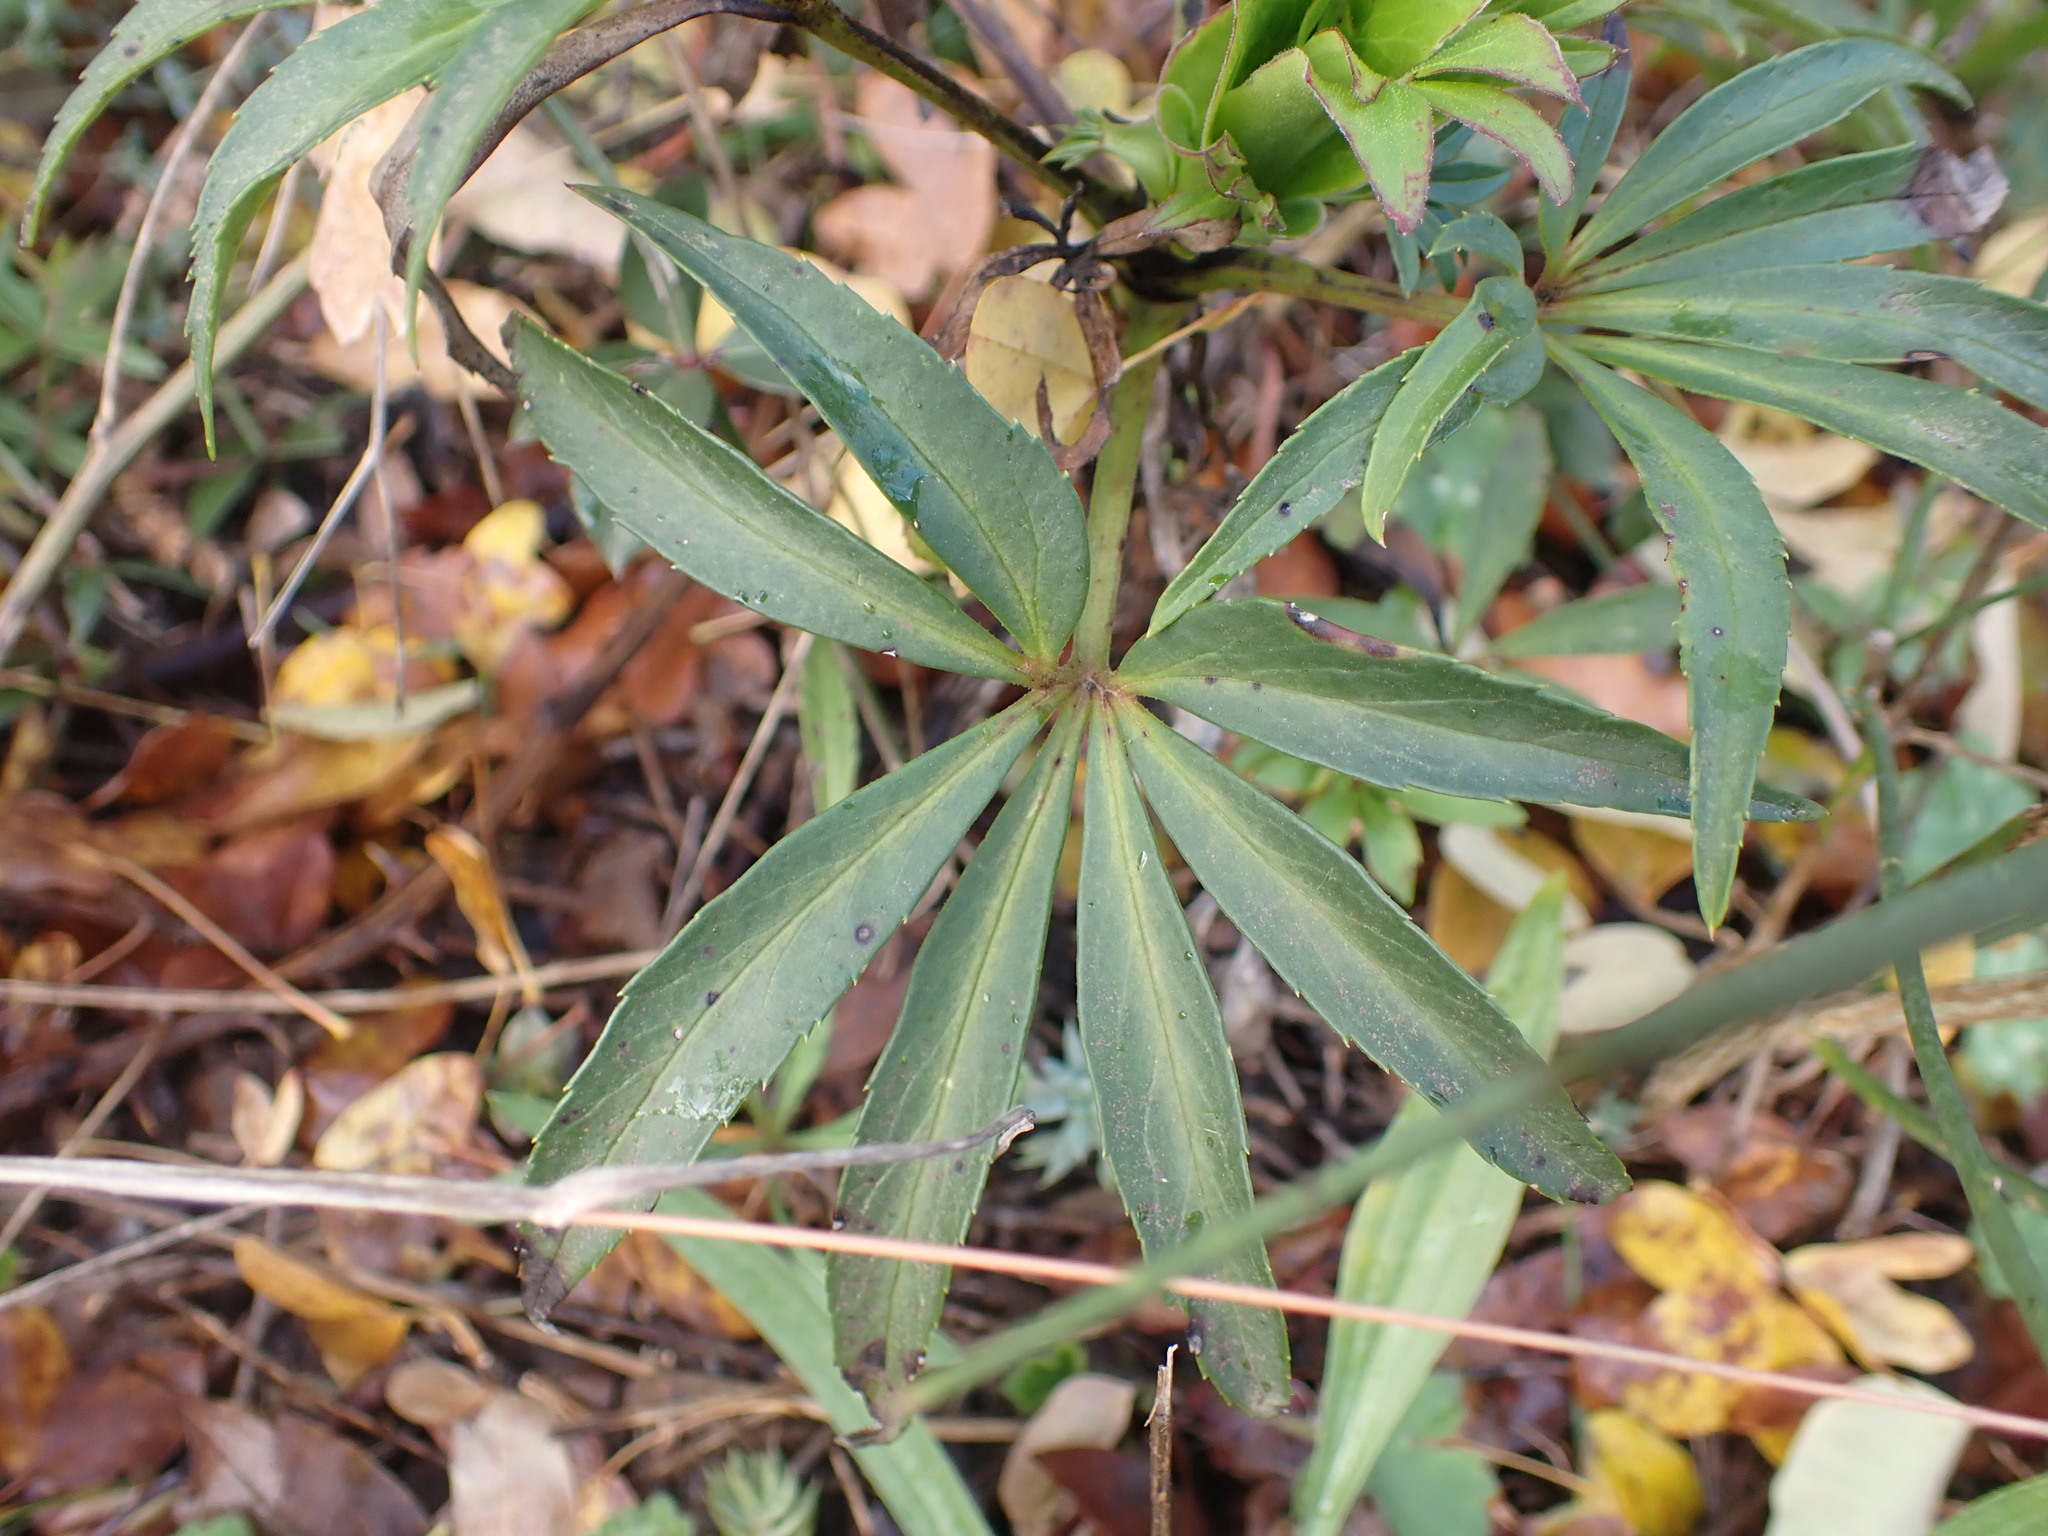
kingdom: Plantae
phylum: Tracheophyta
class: Magnoliopsida
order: Ranunculales
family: Ranunculaceae
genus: Helleborus
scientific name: Helleborus foetidus
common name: Stinking hellebore
